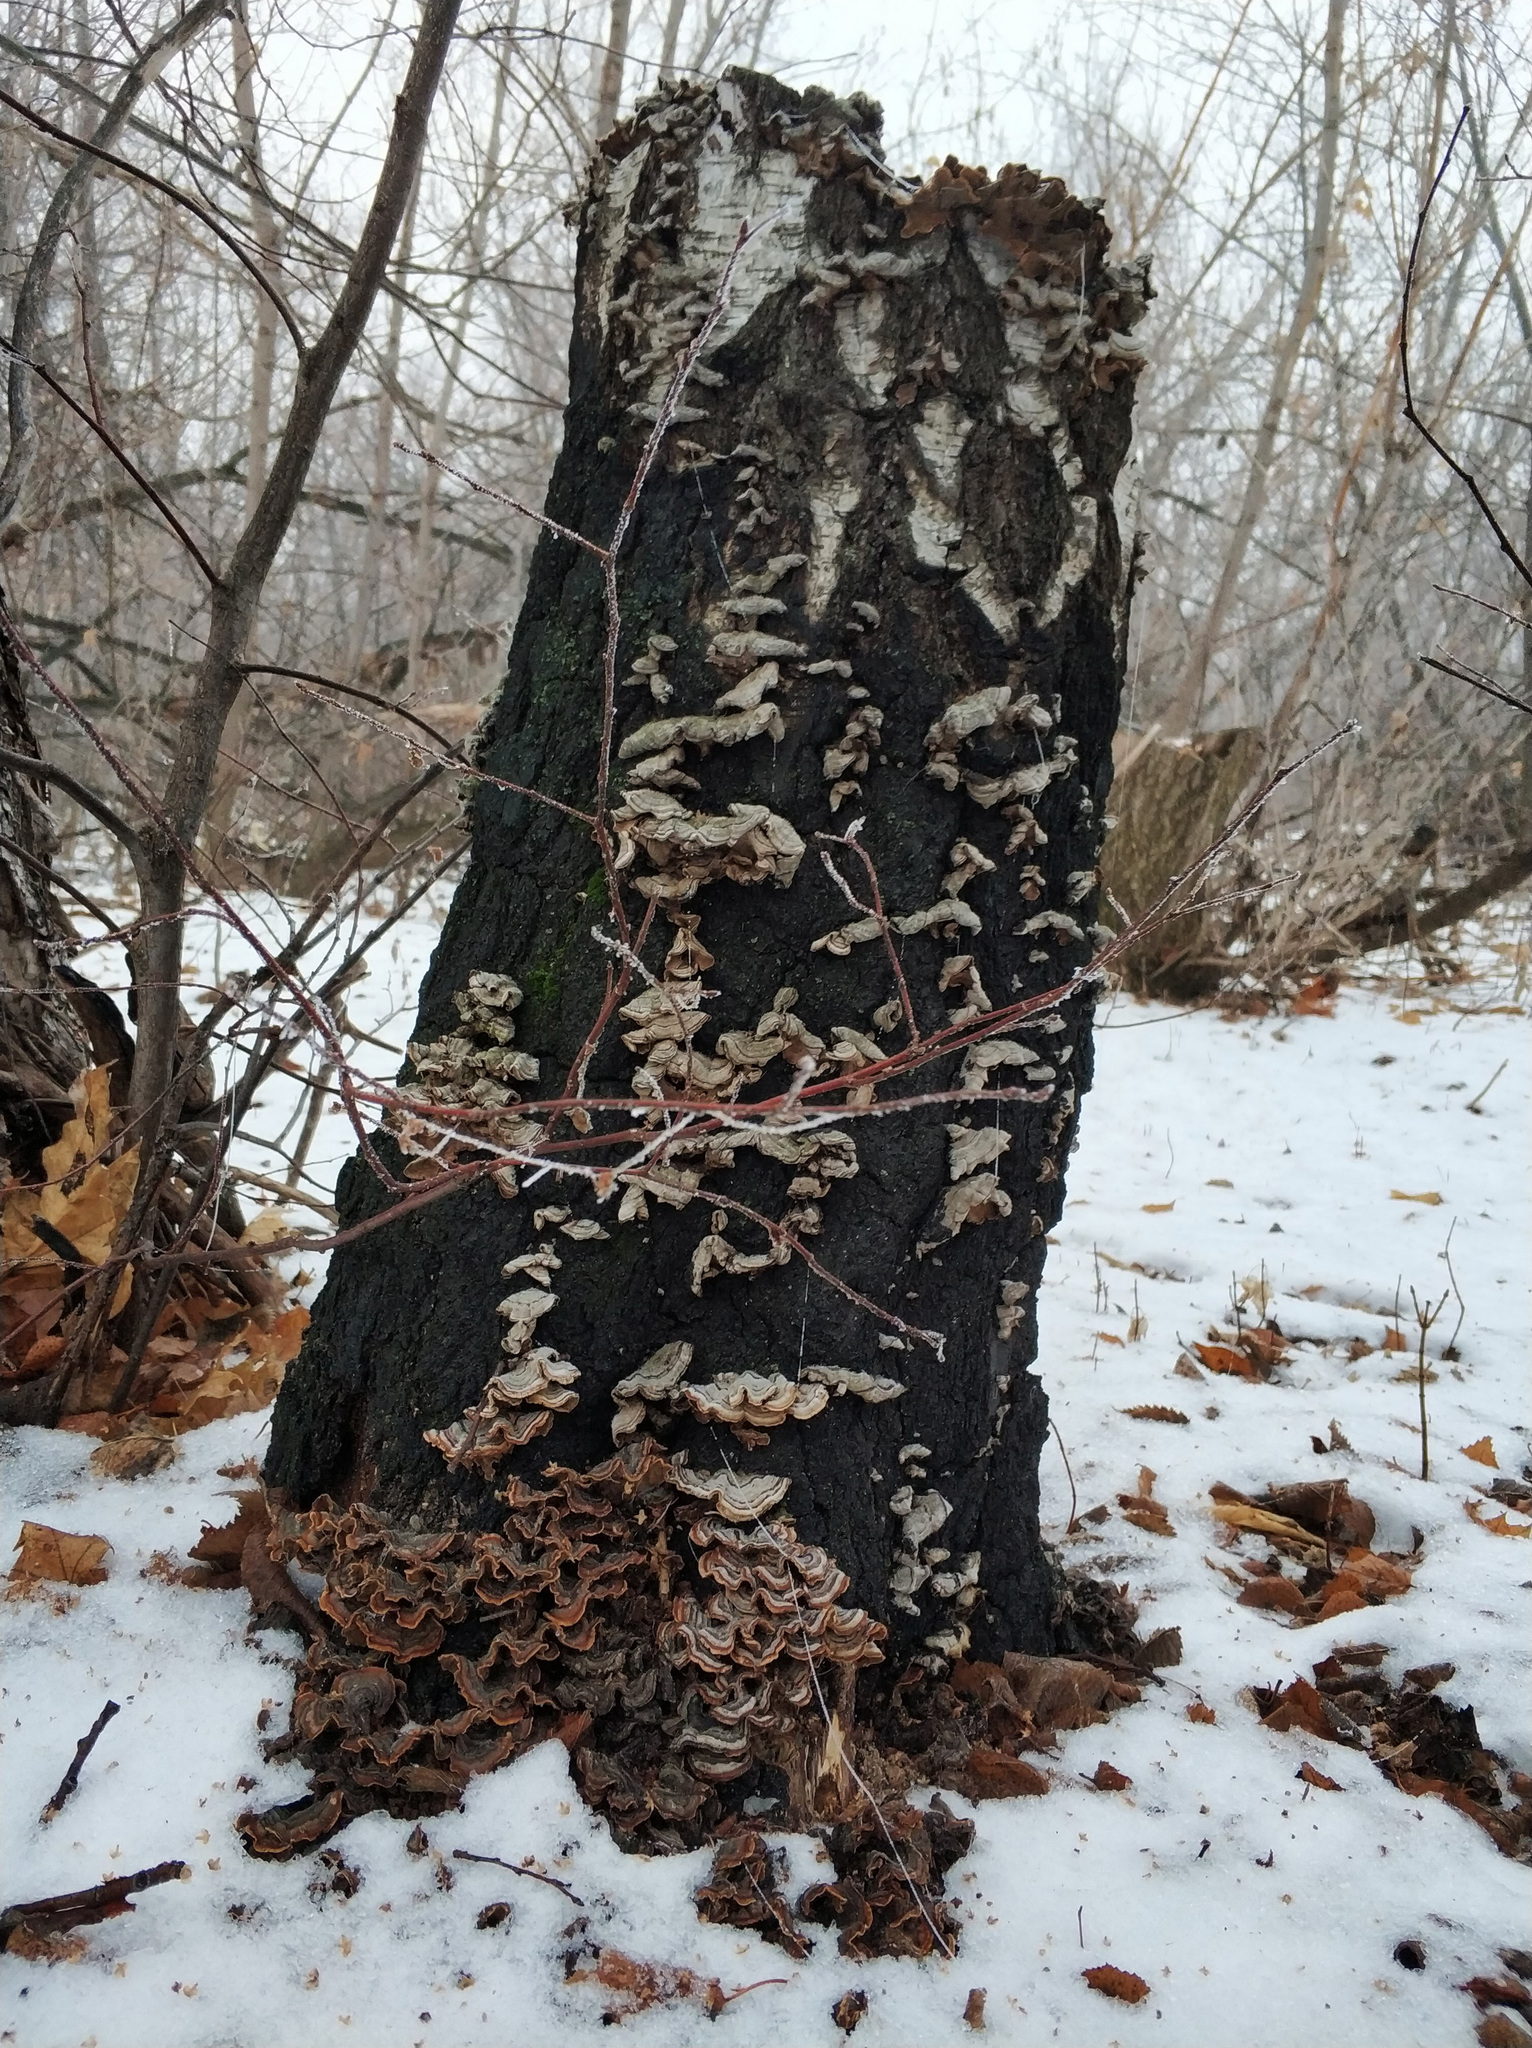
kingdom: Fungi
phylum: Basidiomycota
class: Agaricomycetes
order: Russulales
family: Stereaceae
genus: Stereum
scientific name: Stereum hirsutum
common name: Hairy curtain crust
